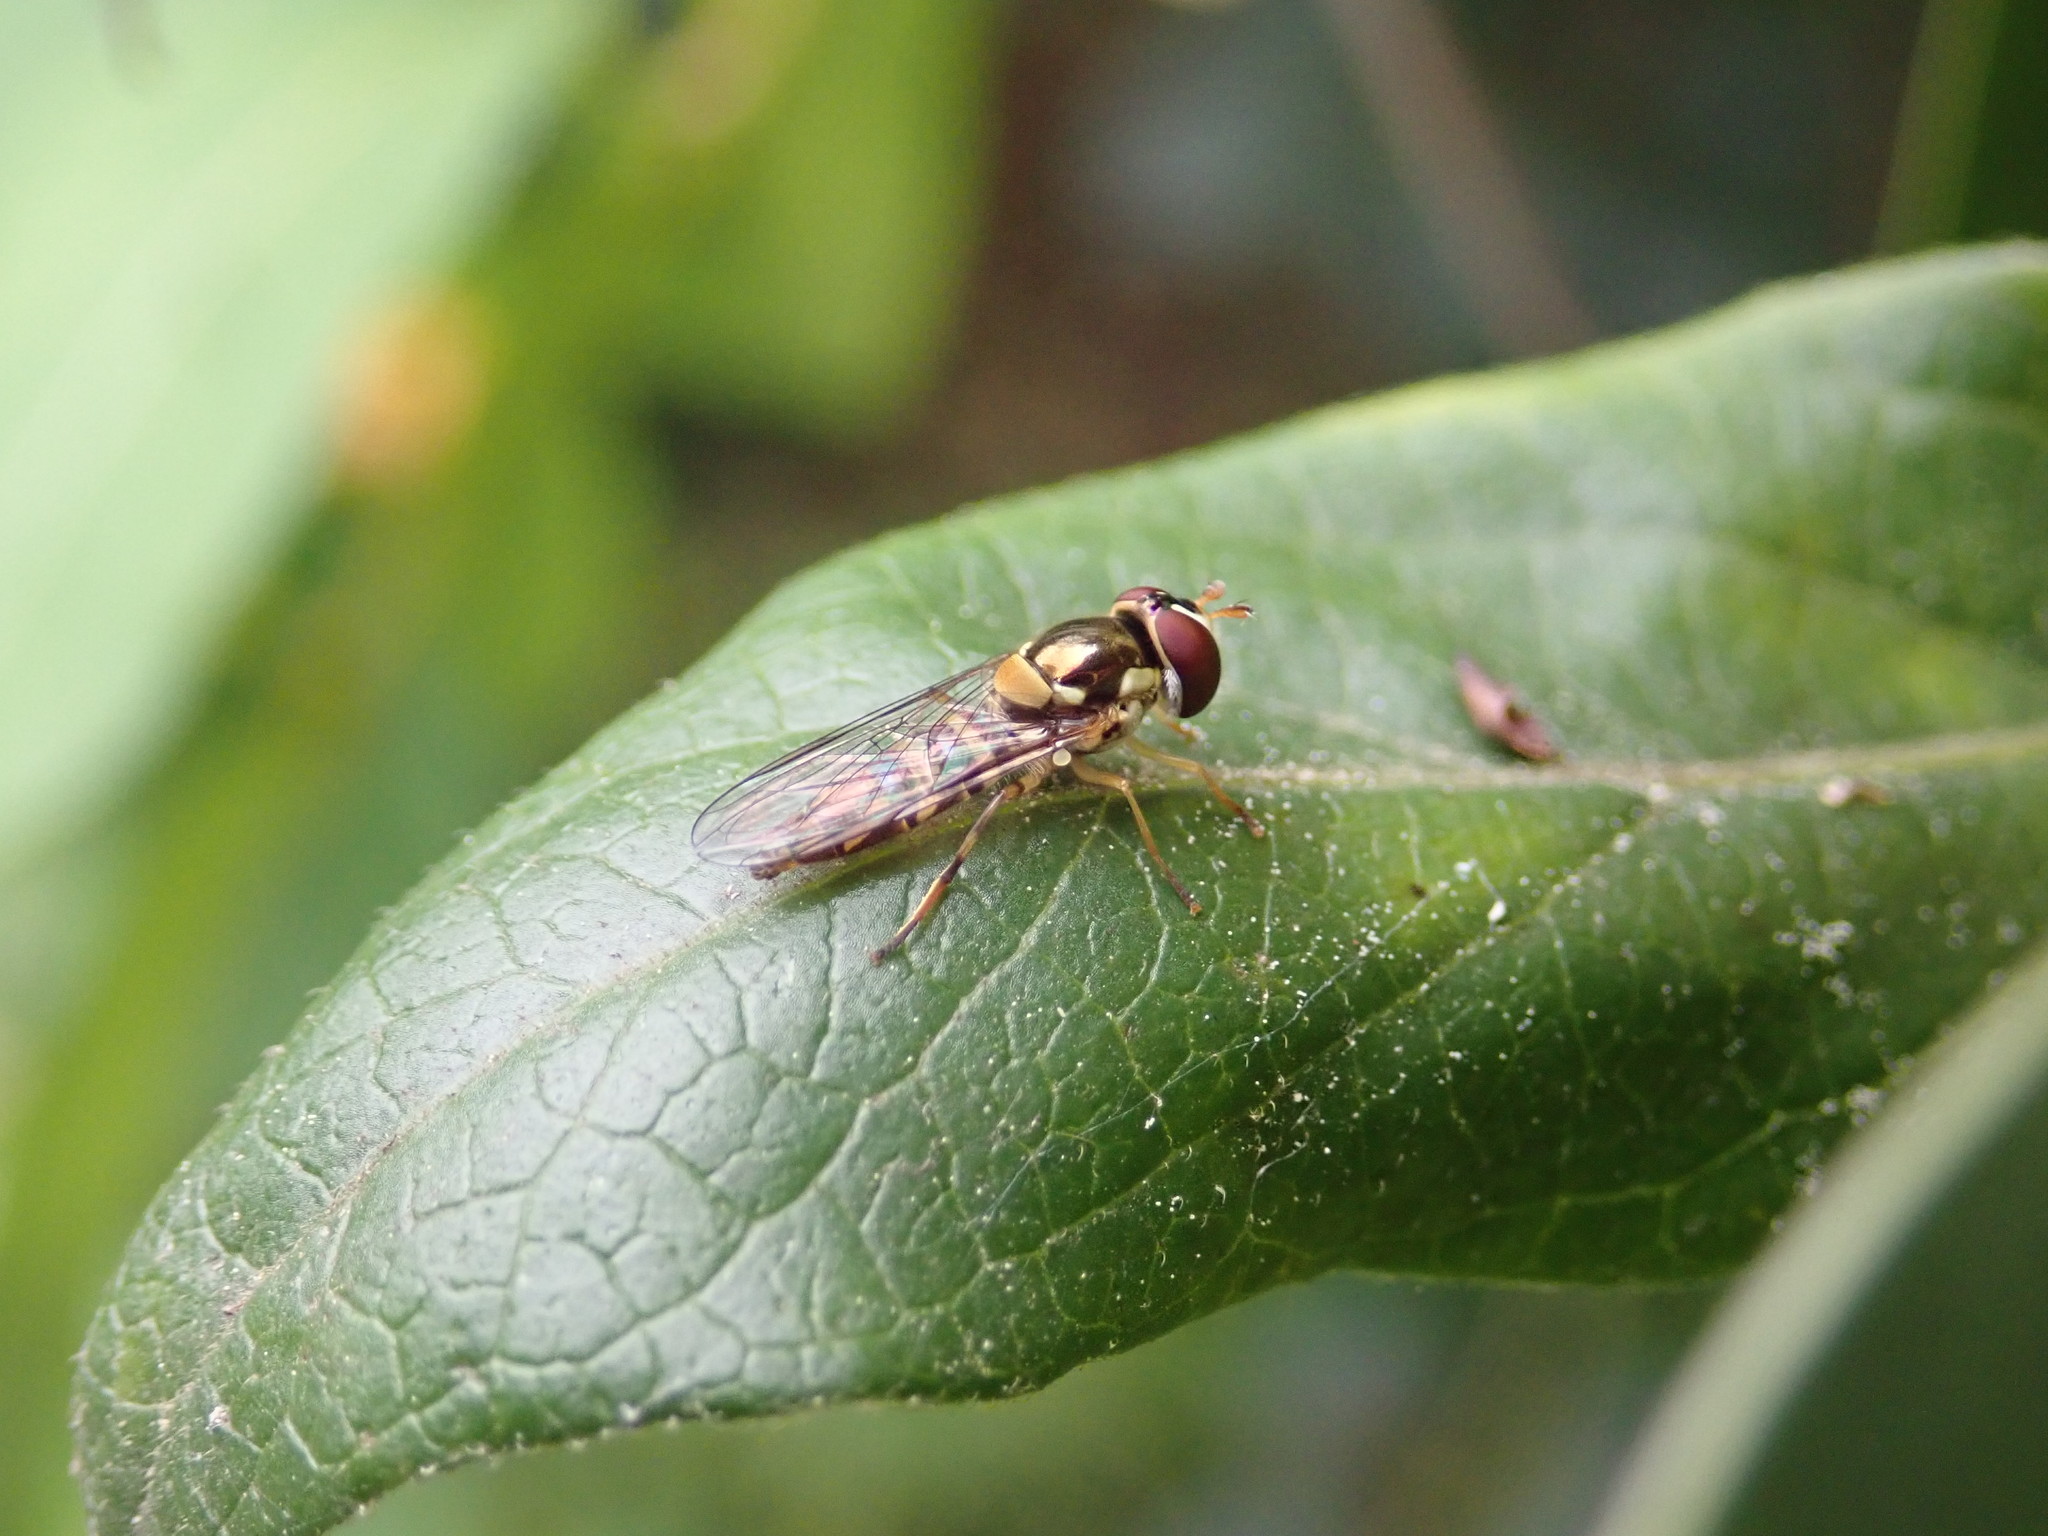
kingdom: Animalia
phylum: Arthropoda
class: Insecta
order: Diptera
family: Syrphidae
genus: Allograpta
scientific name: Allograpta obliqua
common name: Common oblique syrphid
